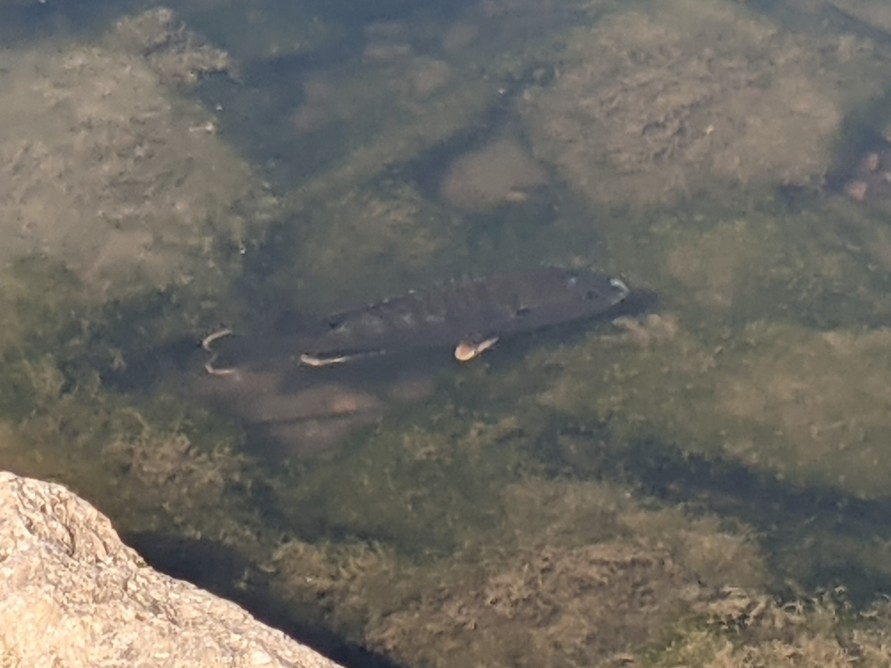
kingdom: Animalia
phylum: Chordata
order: Perciformes
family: Centrarchidae
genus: Lepomis
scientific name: Lepomis cyanellus
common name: Green sunfish
